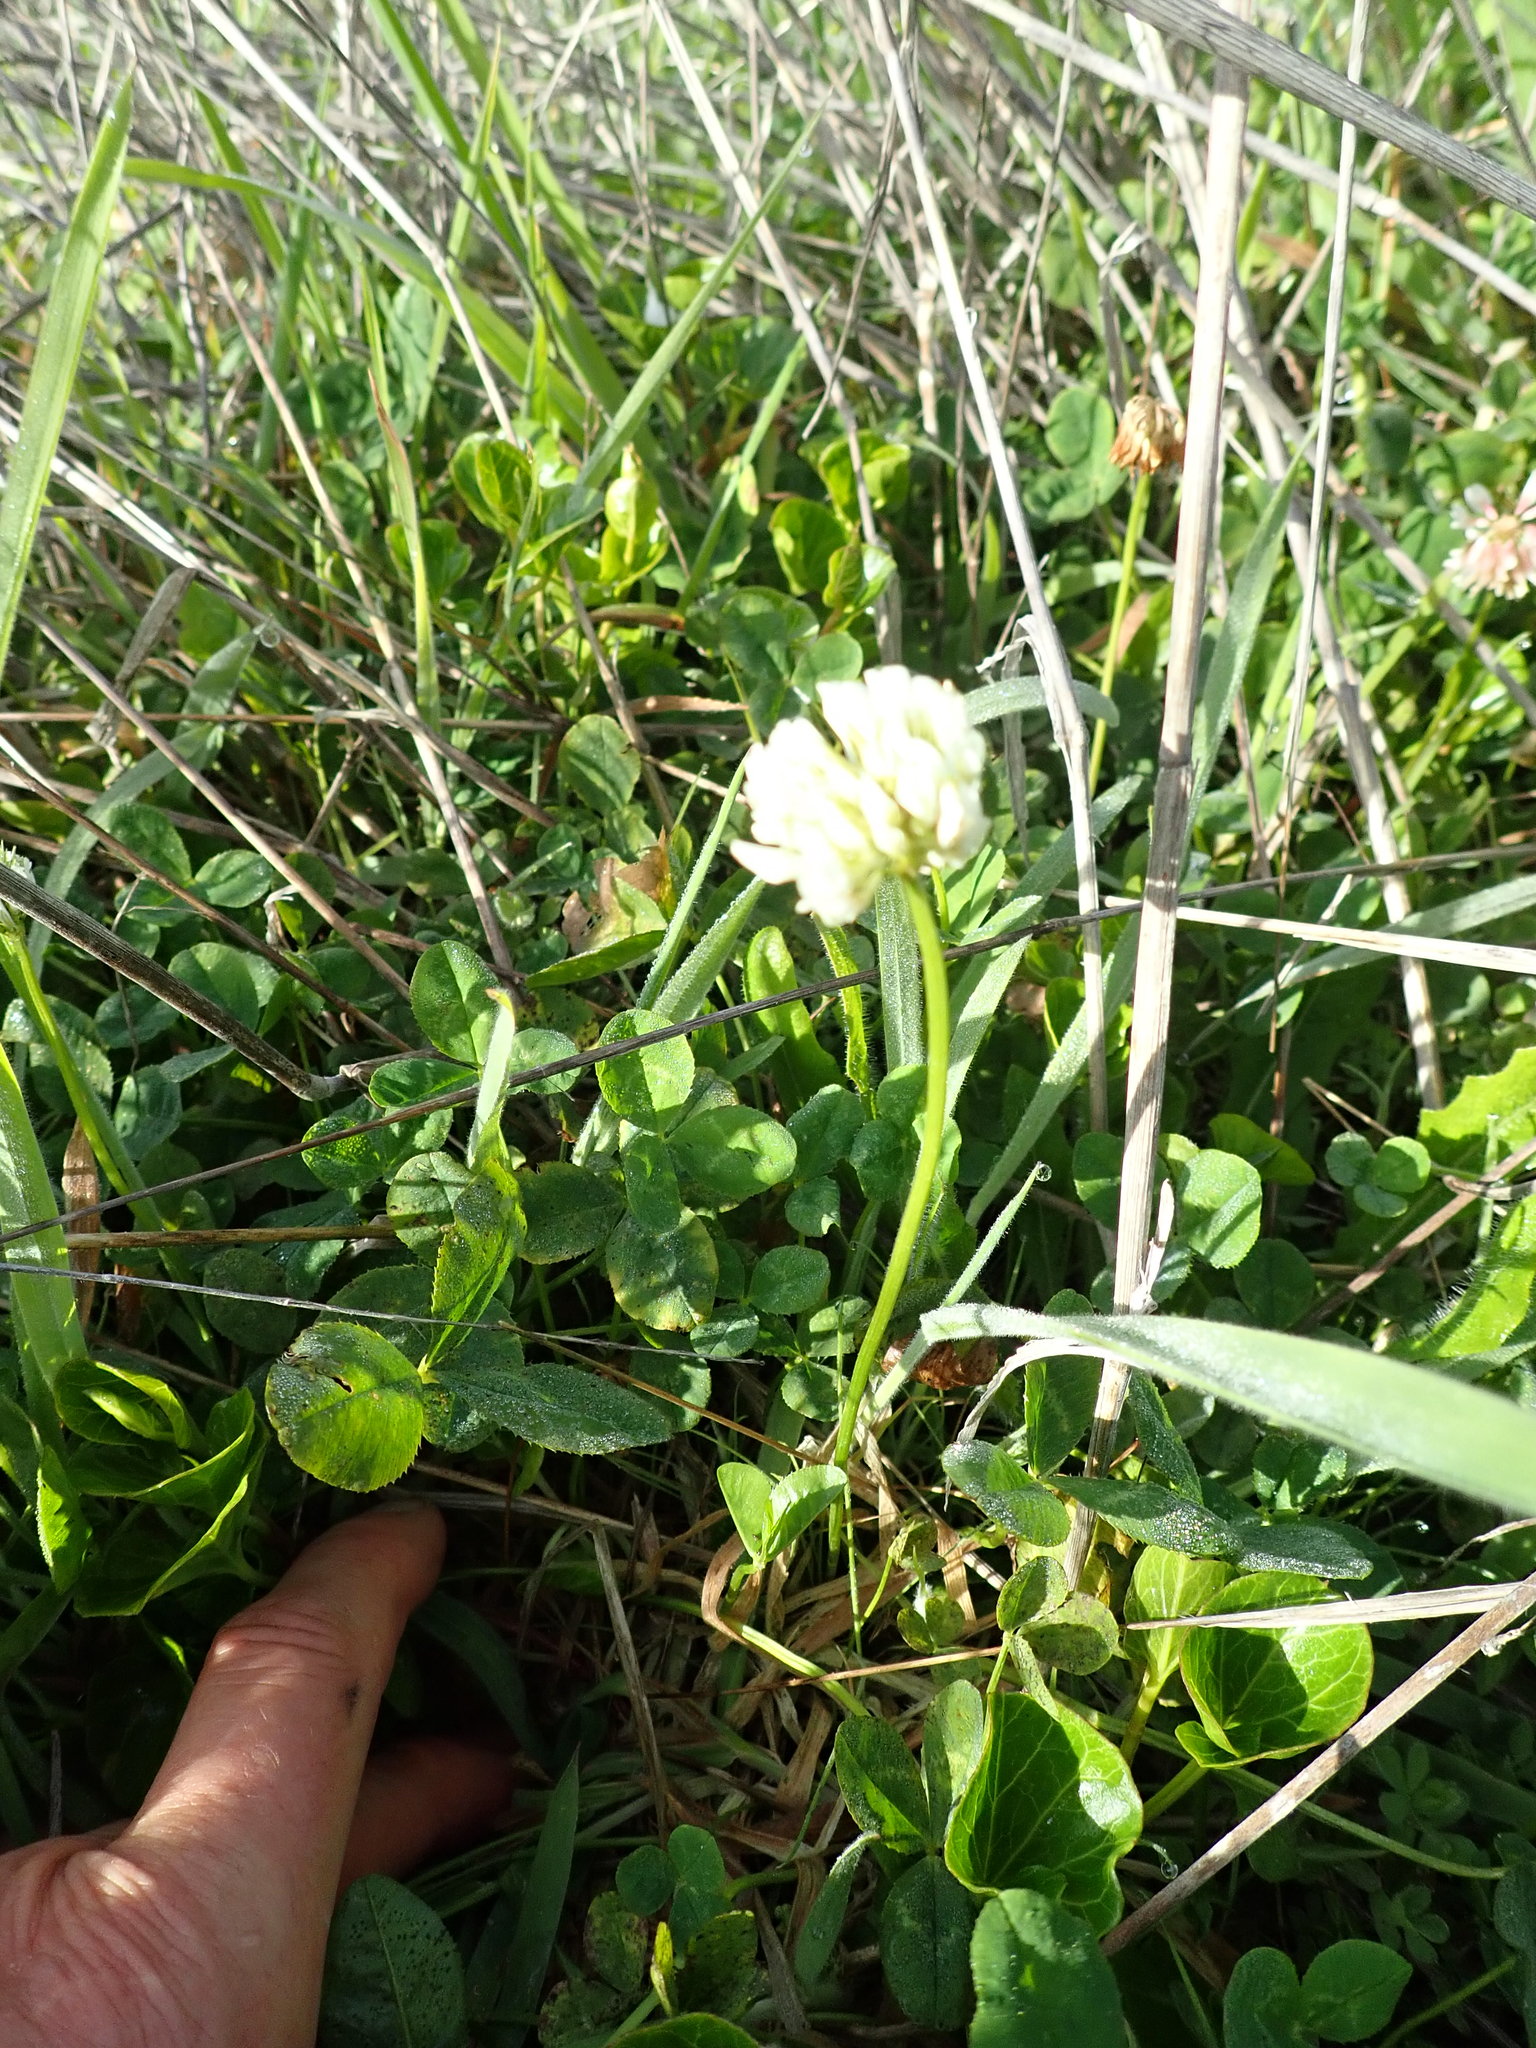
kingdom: Plantae
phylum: Tracheophyta
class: Magnoliopsida
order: Fabales
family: Fabaceae
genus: Trifolium
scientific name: Trifolium repens
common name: White clover
